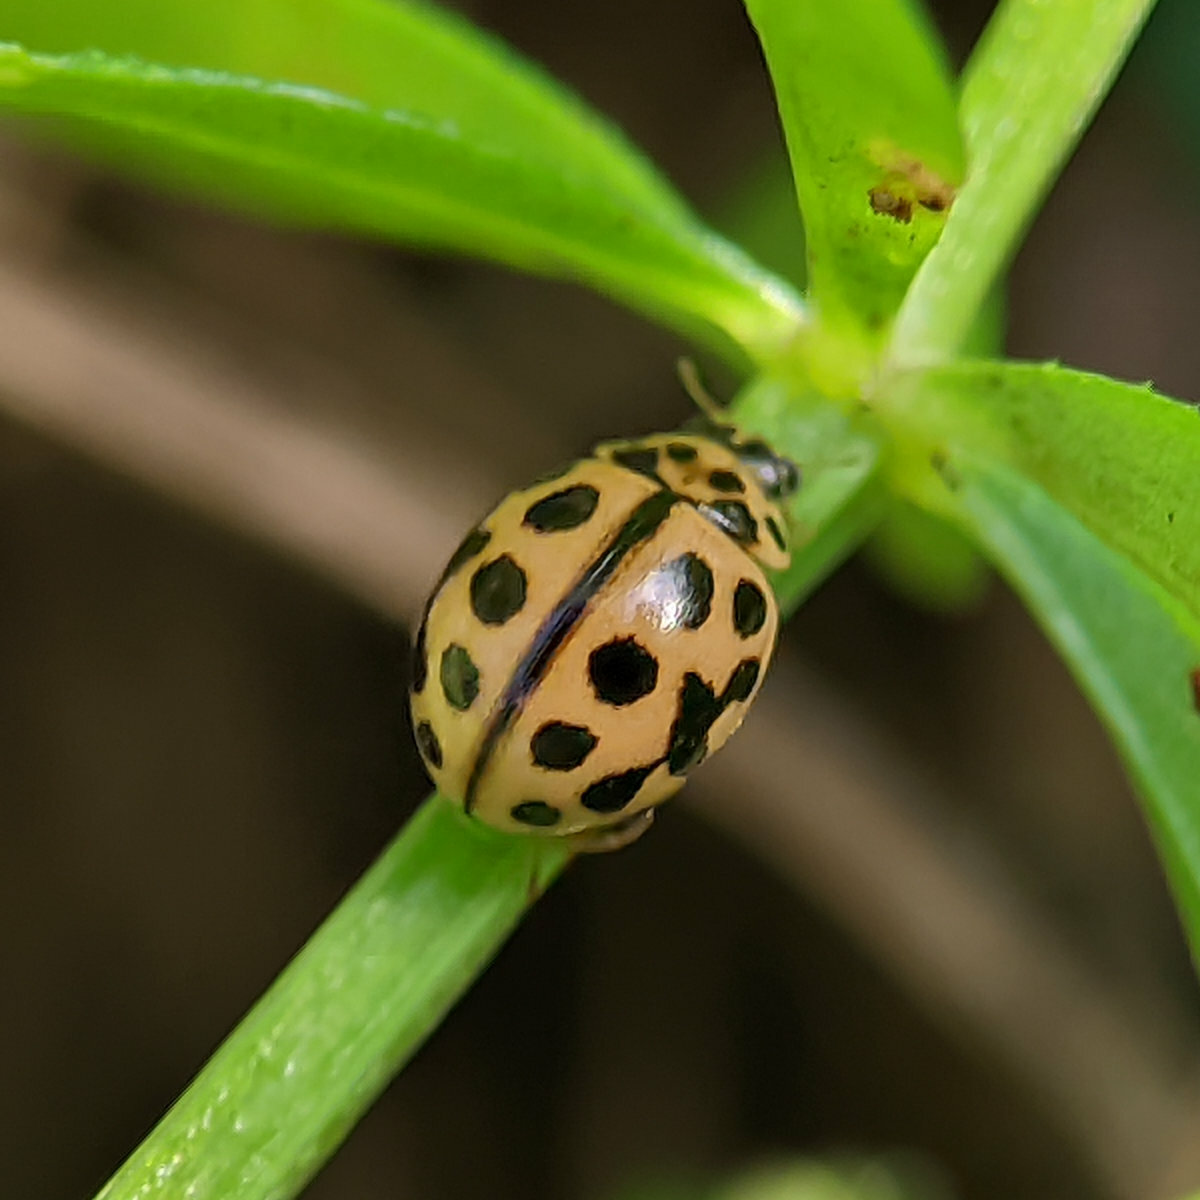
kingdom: Animalia
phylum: Arthropoda
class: Insecta
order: Coleoptera
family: Coccinellidae
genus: Tytthaspis
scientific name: Tytthaspis sedecimpunctata
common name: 16-spot ladybird
